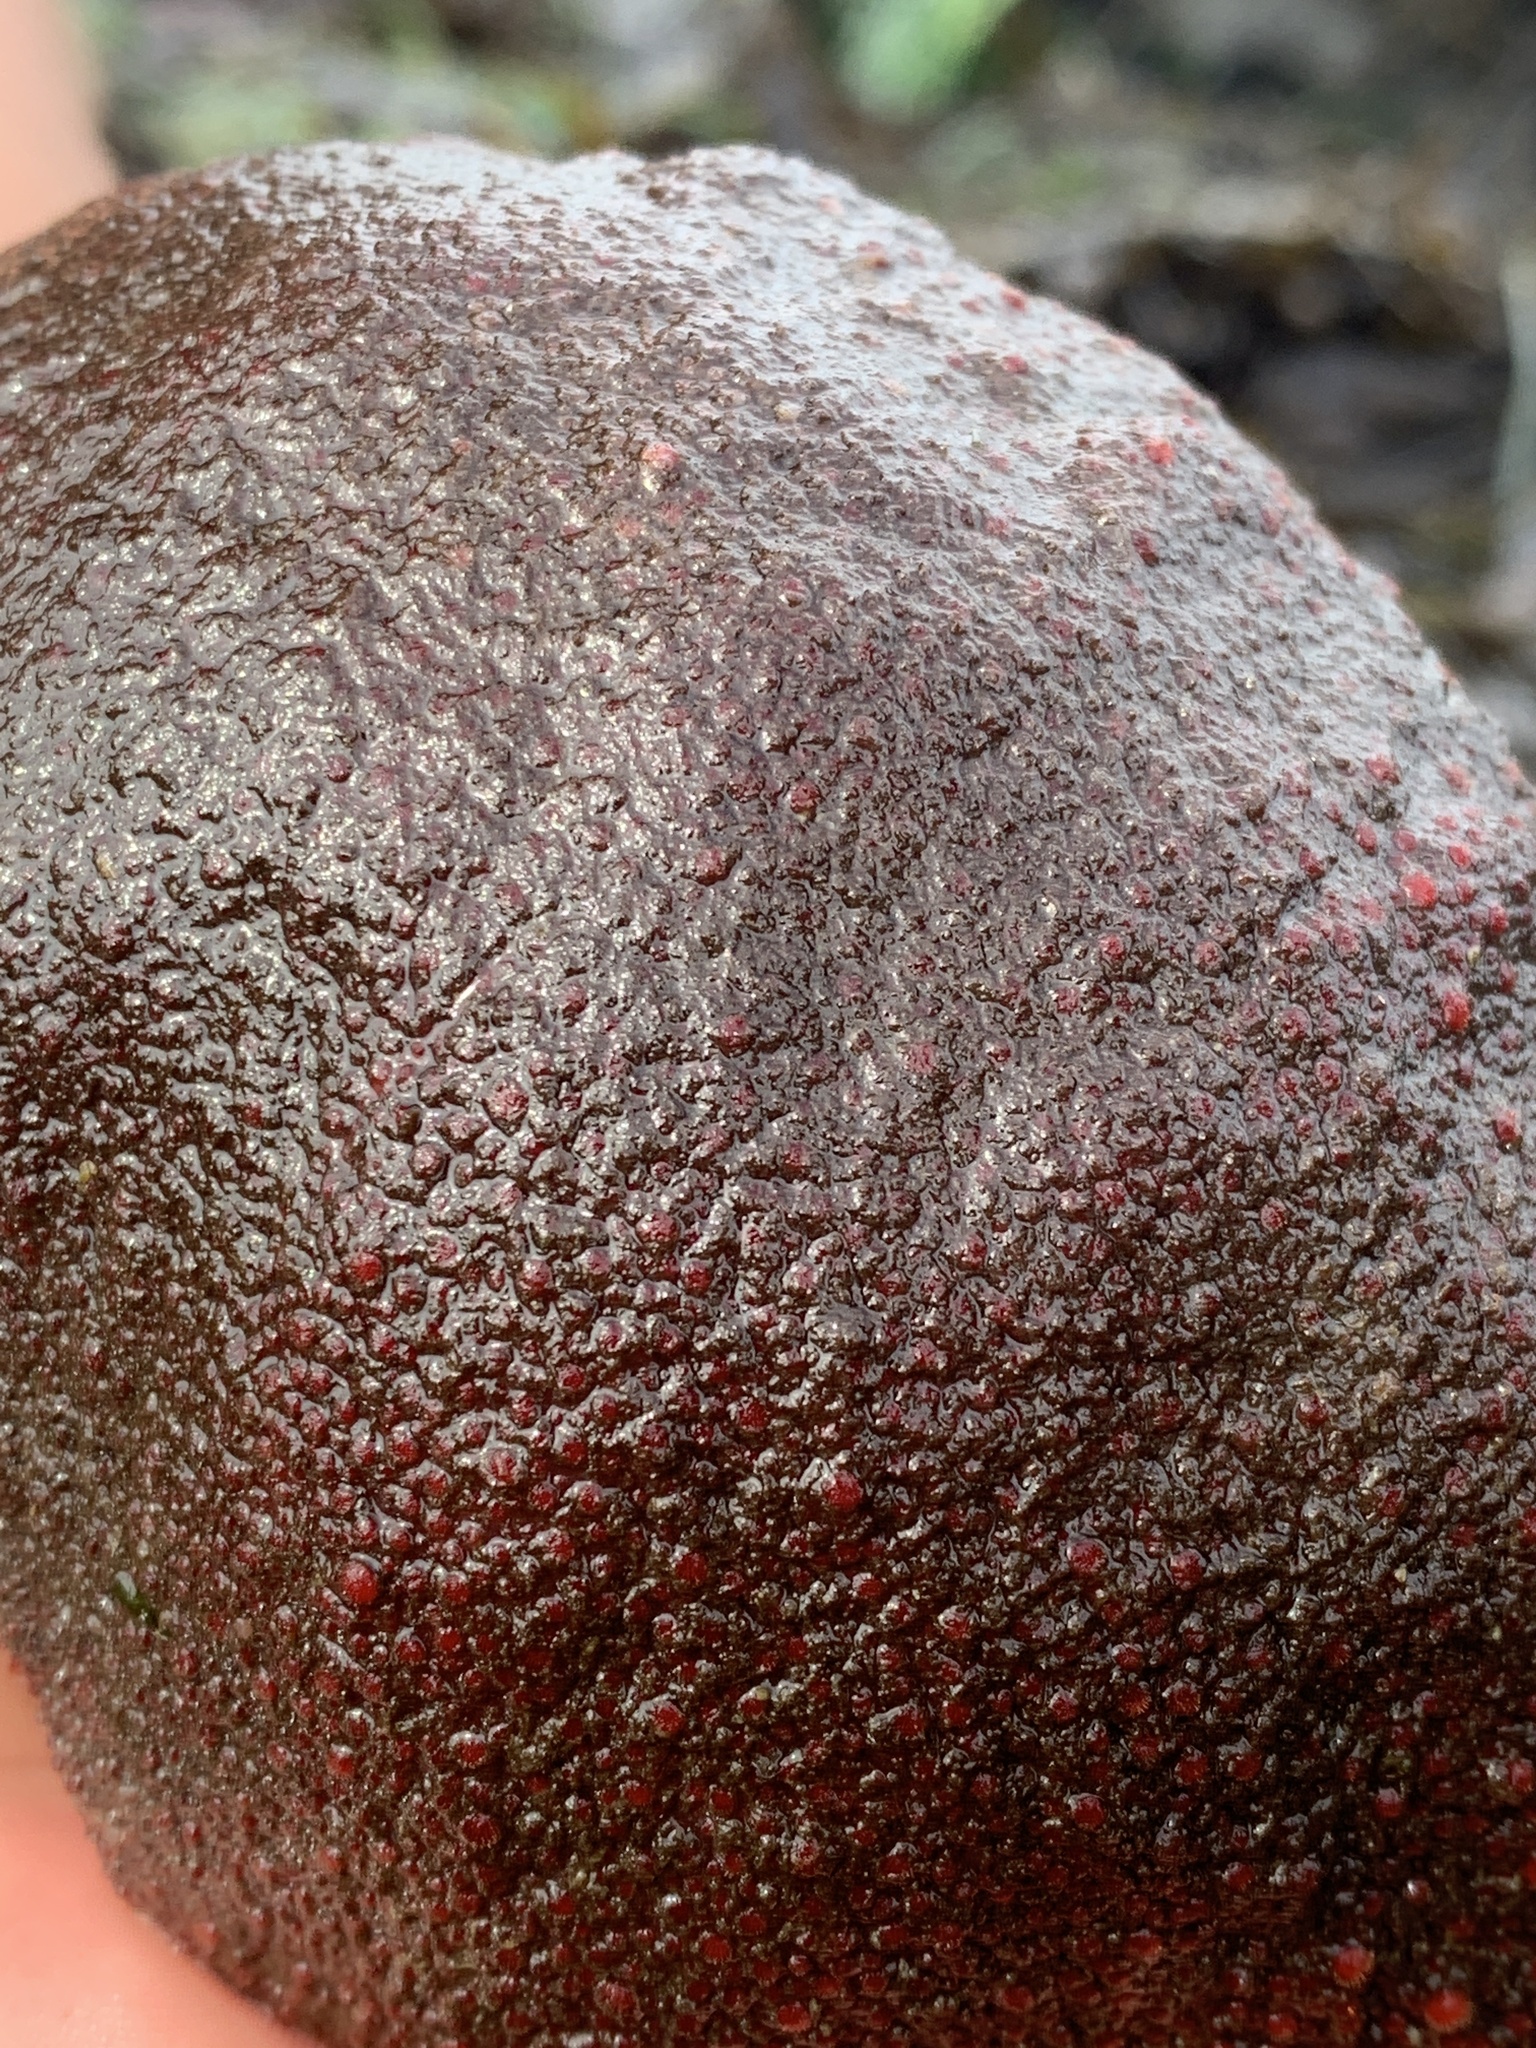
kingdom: Animalia
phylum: Mollusca
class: Polyplacophora
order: Chitonida
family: Acanthochitonidae
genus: Cryptochiton
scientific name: Cryptochiton stelleri
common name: Giant pacific chiton
